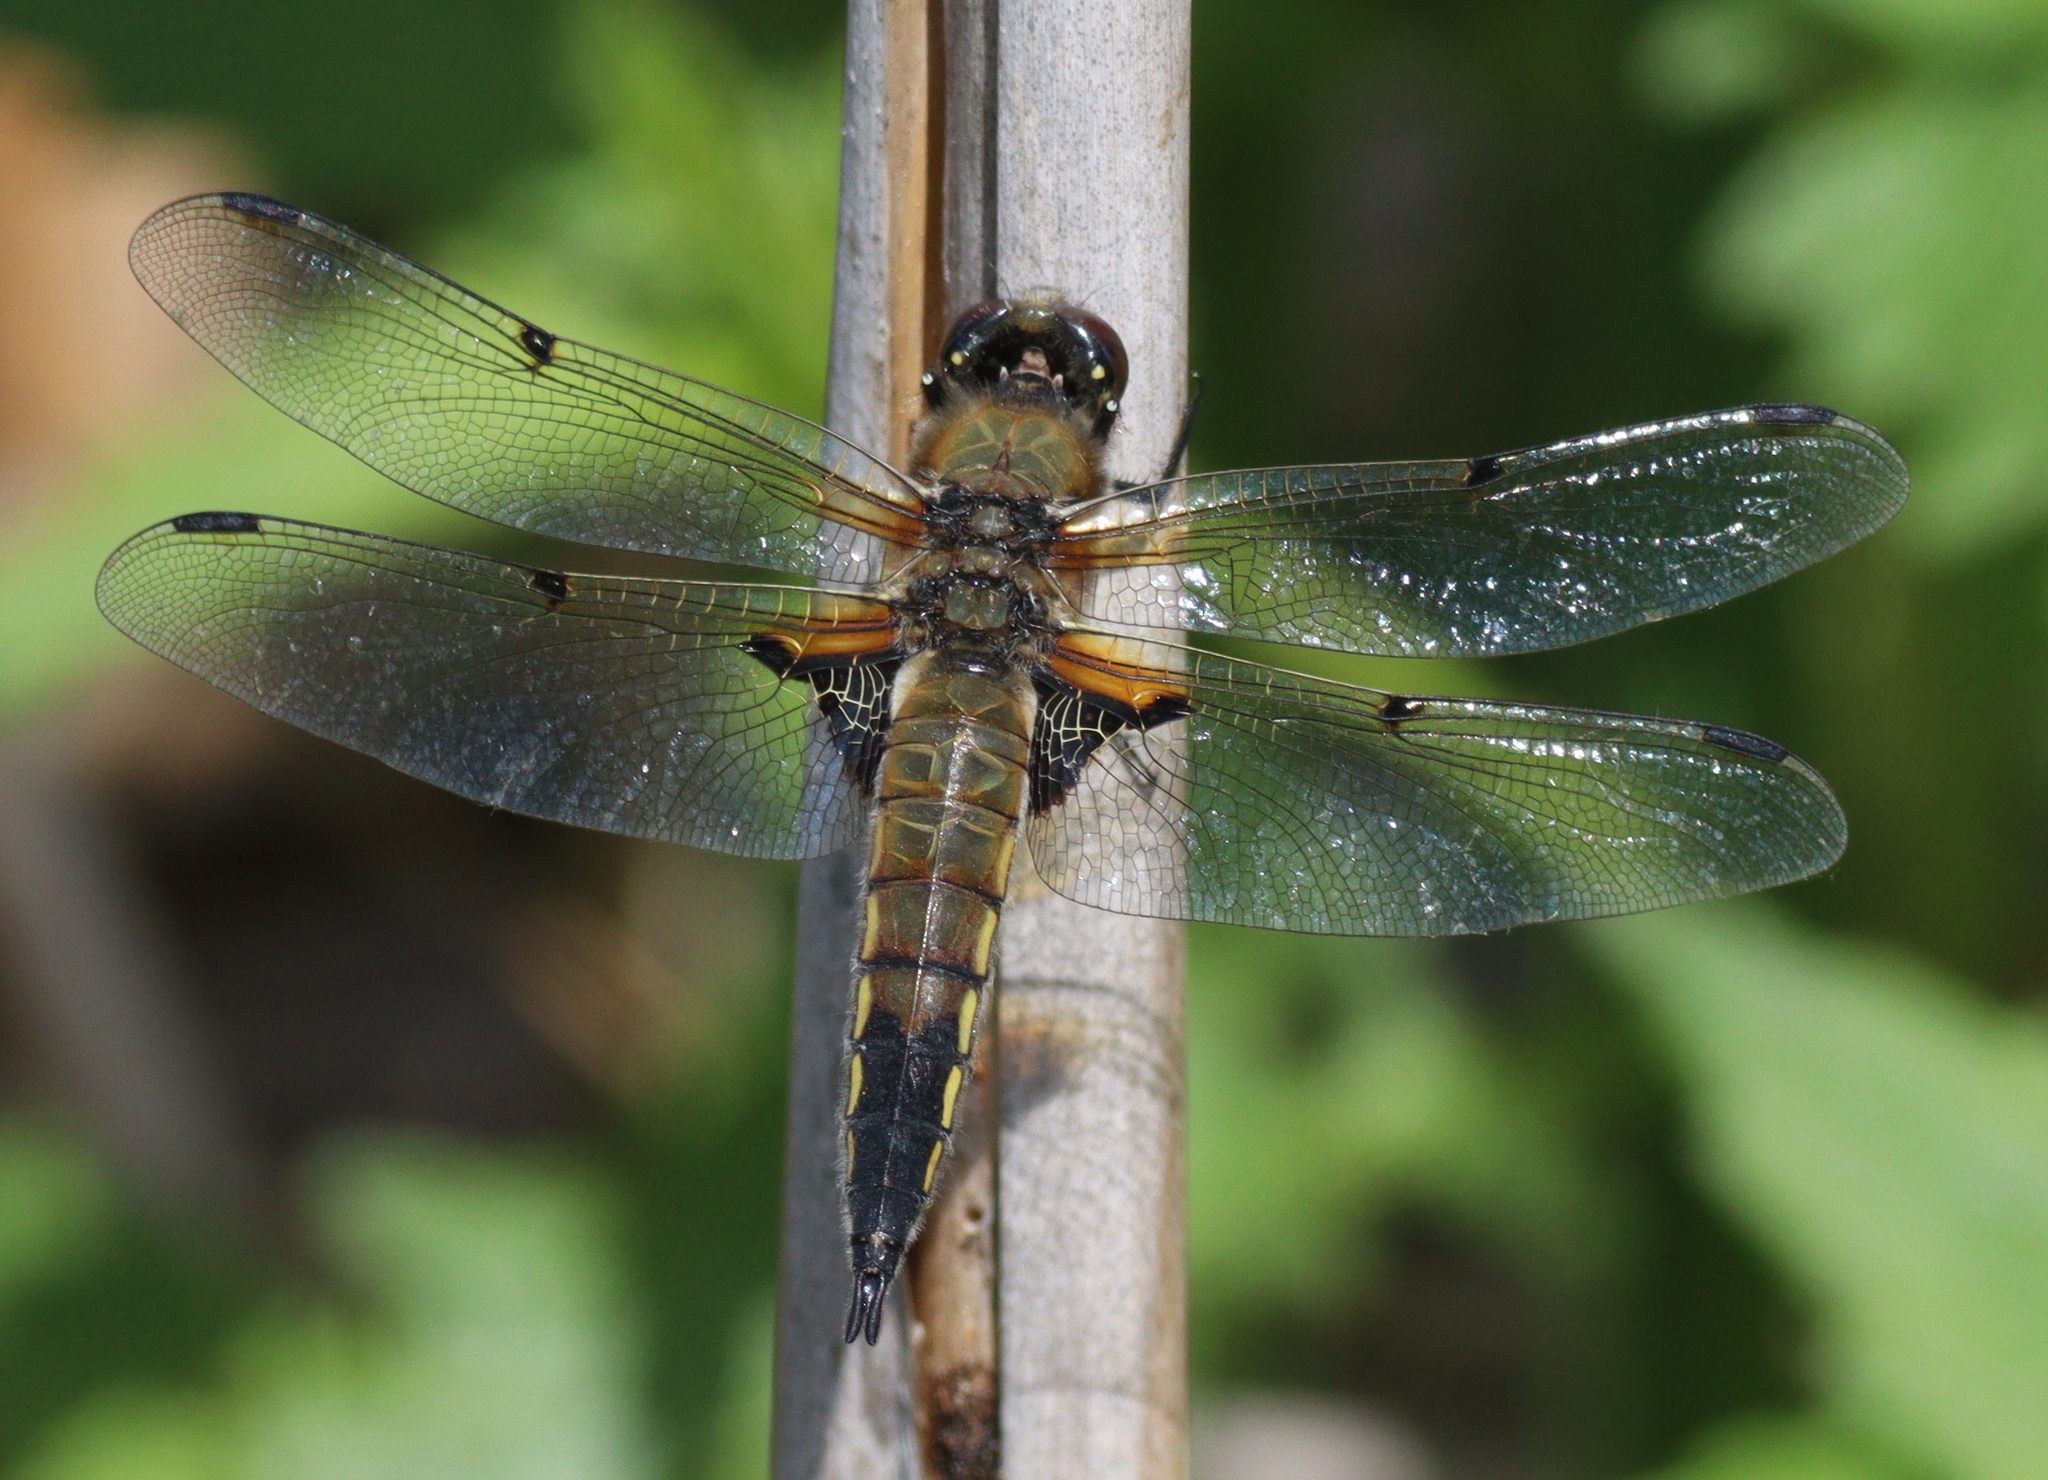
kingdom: Animalia
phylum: Arthropoda
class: Insecta
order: Odonata
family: Libellulidae
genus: Libellula
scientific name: Libellula quadrimaculata
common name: Four-spotted chaser
